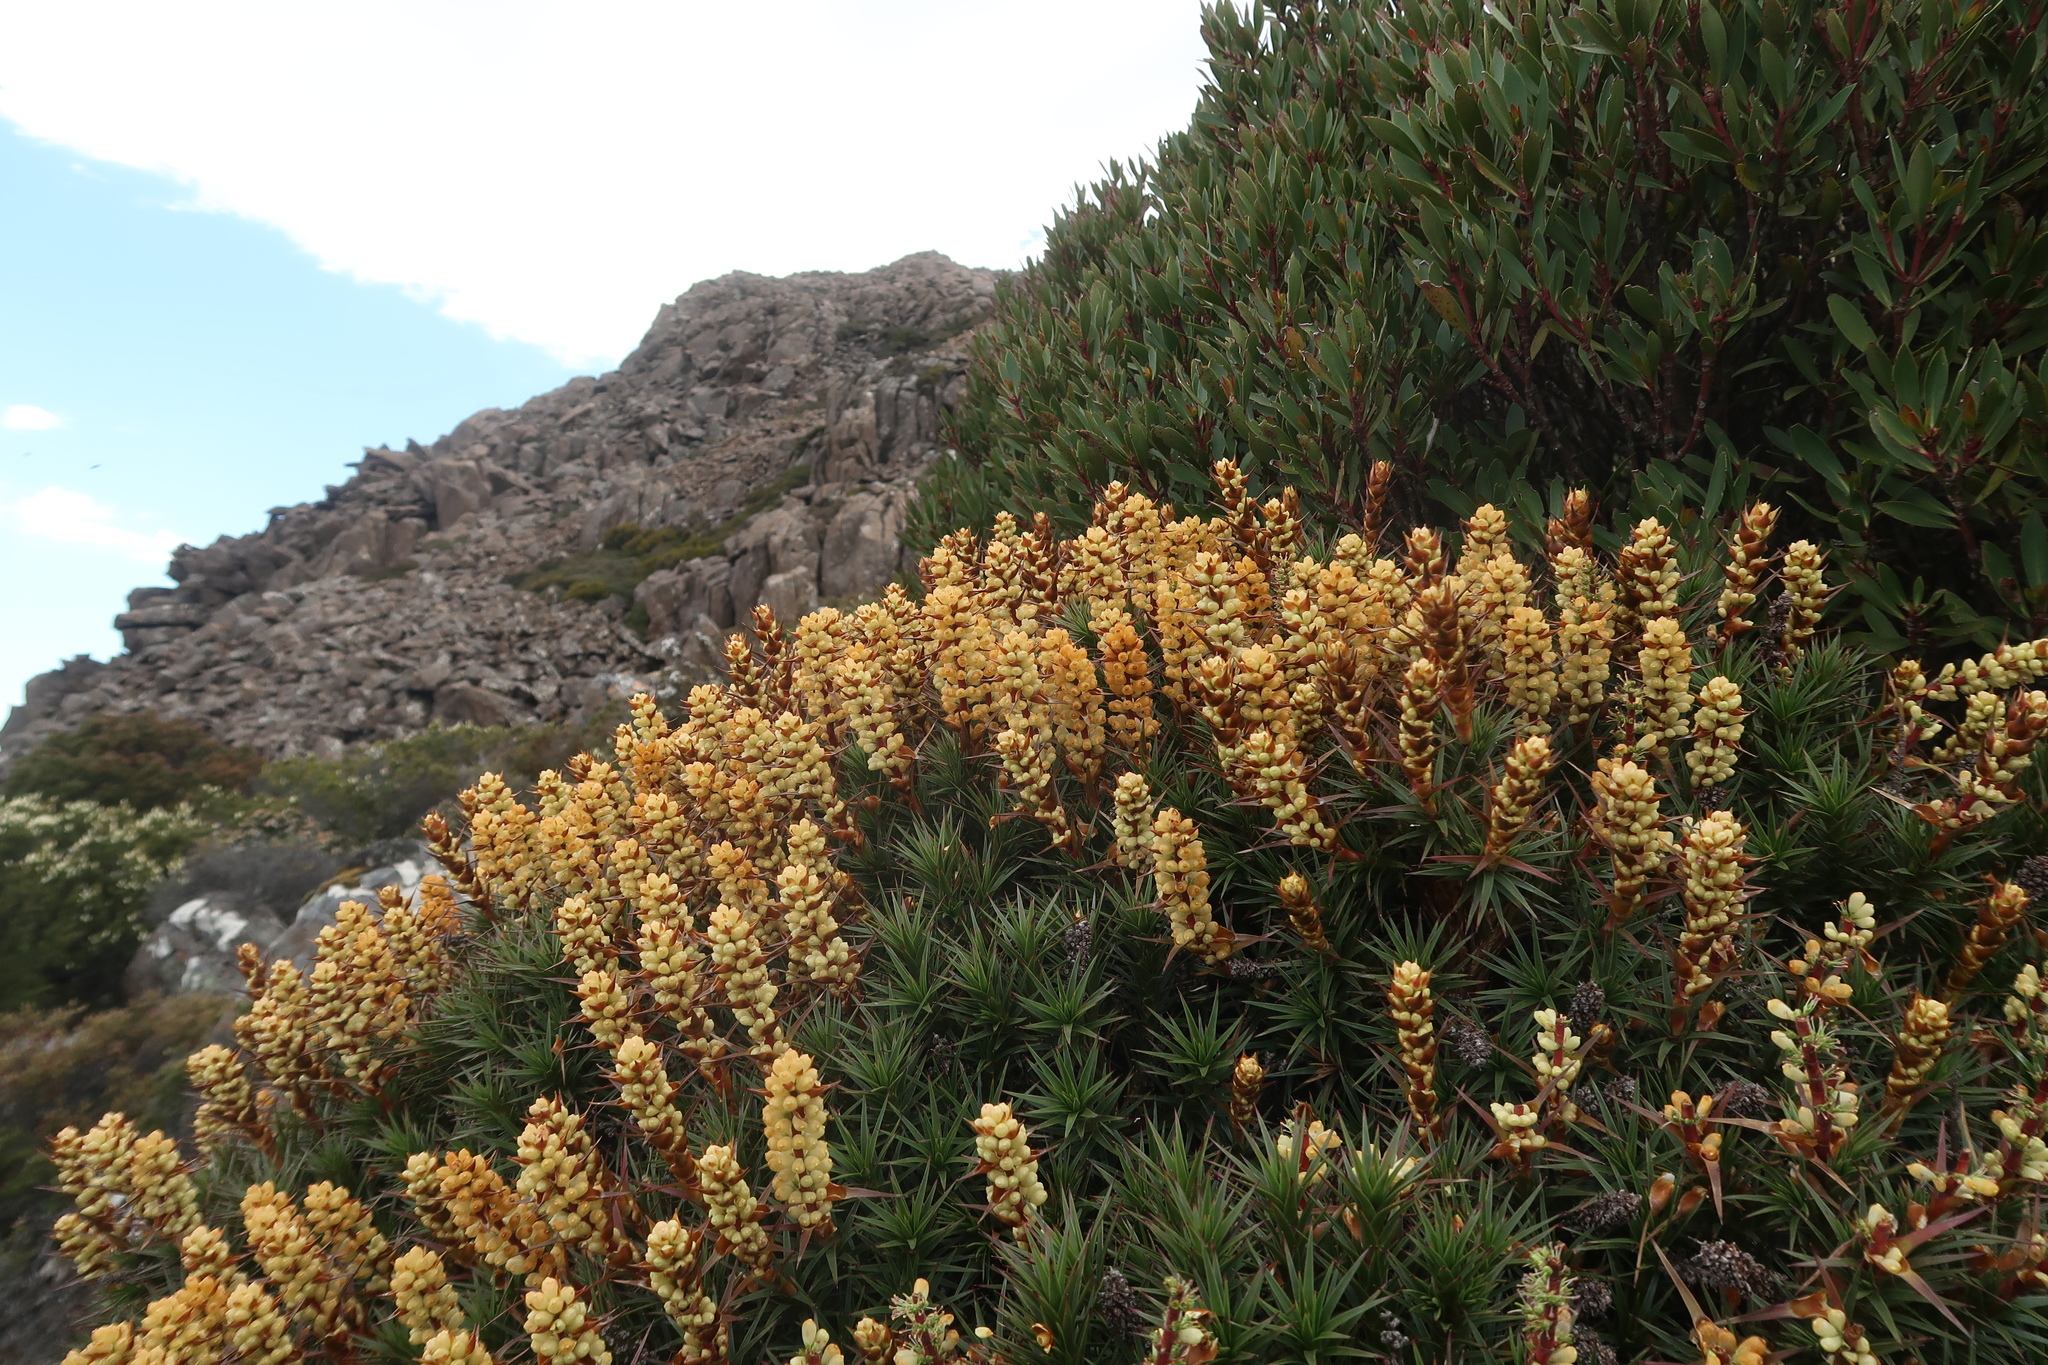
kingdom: Plantae
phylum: Tracheophyta
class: Magnoliopsida
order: Ericales
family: Ericaceae
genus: Dracophyllum
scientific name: Dracophyllum persistentifolium
